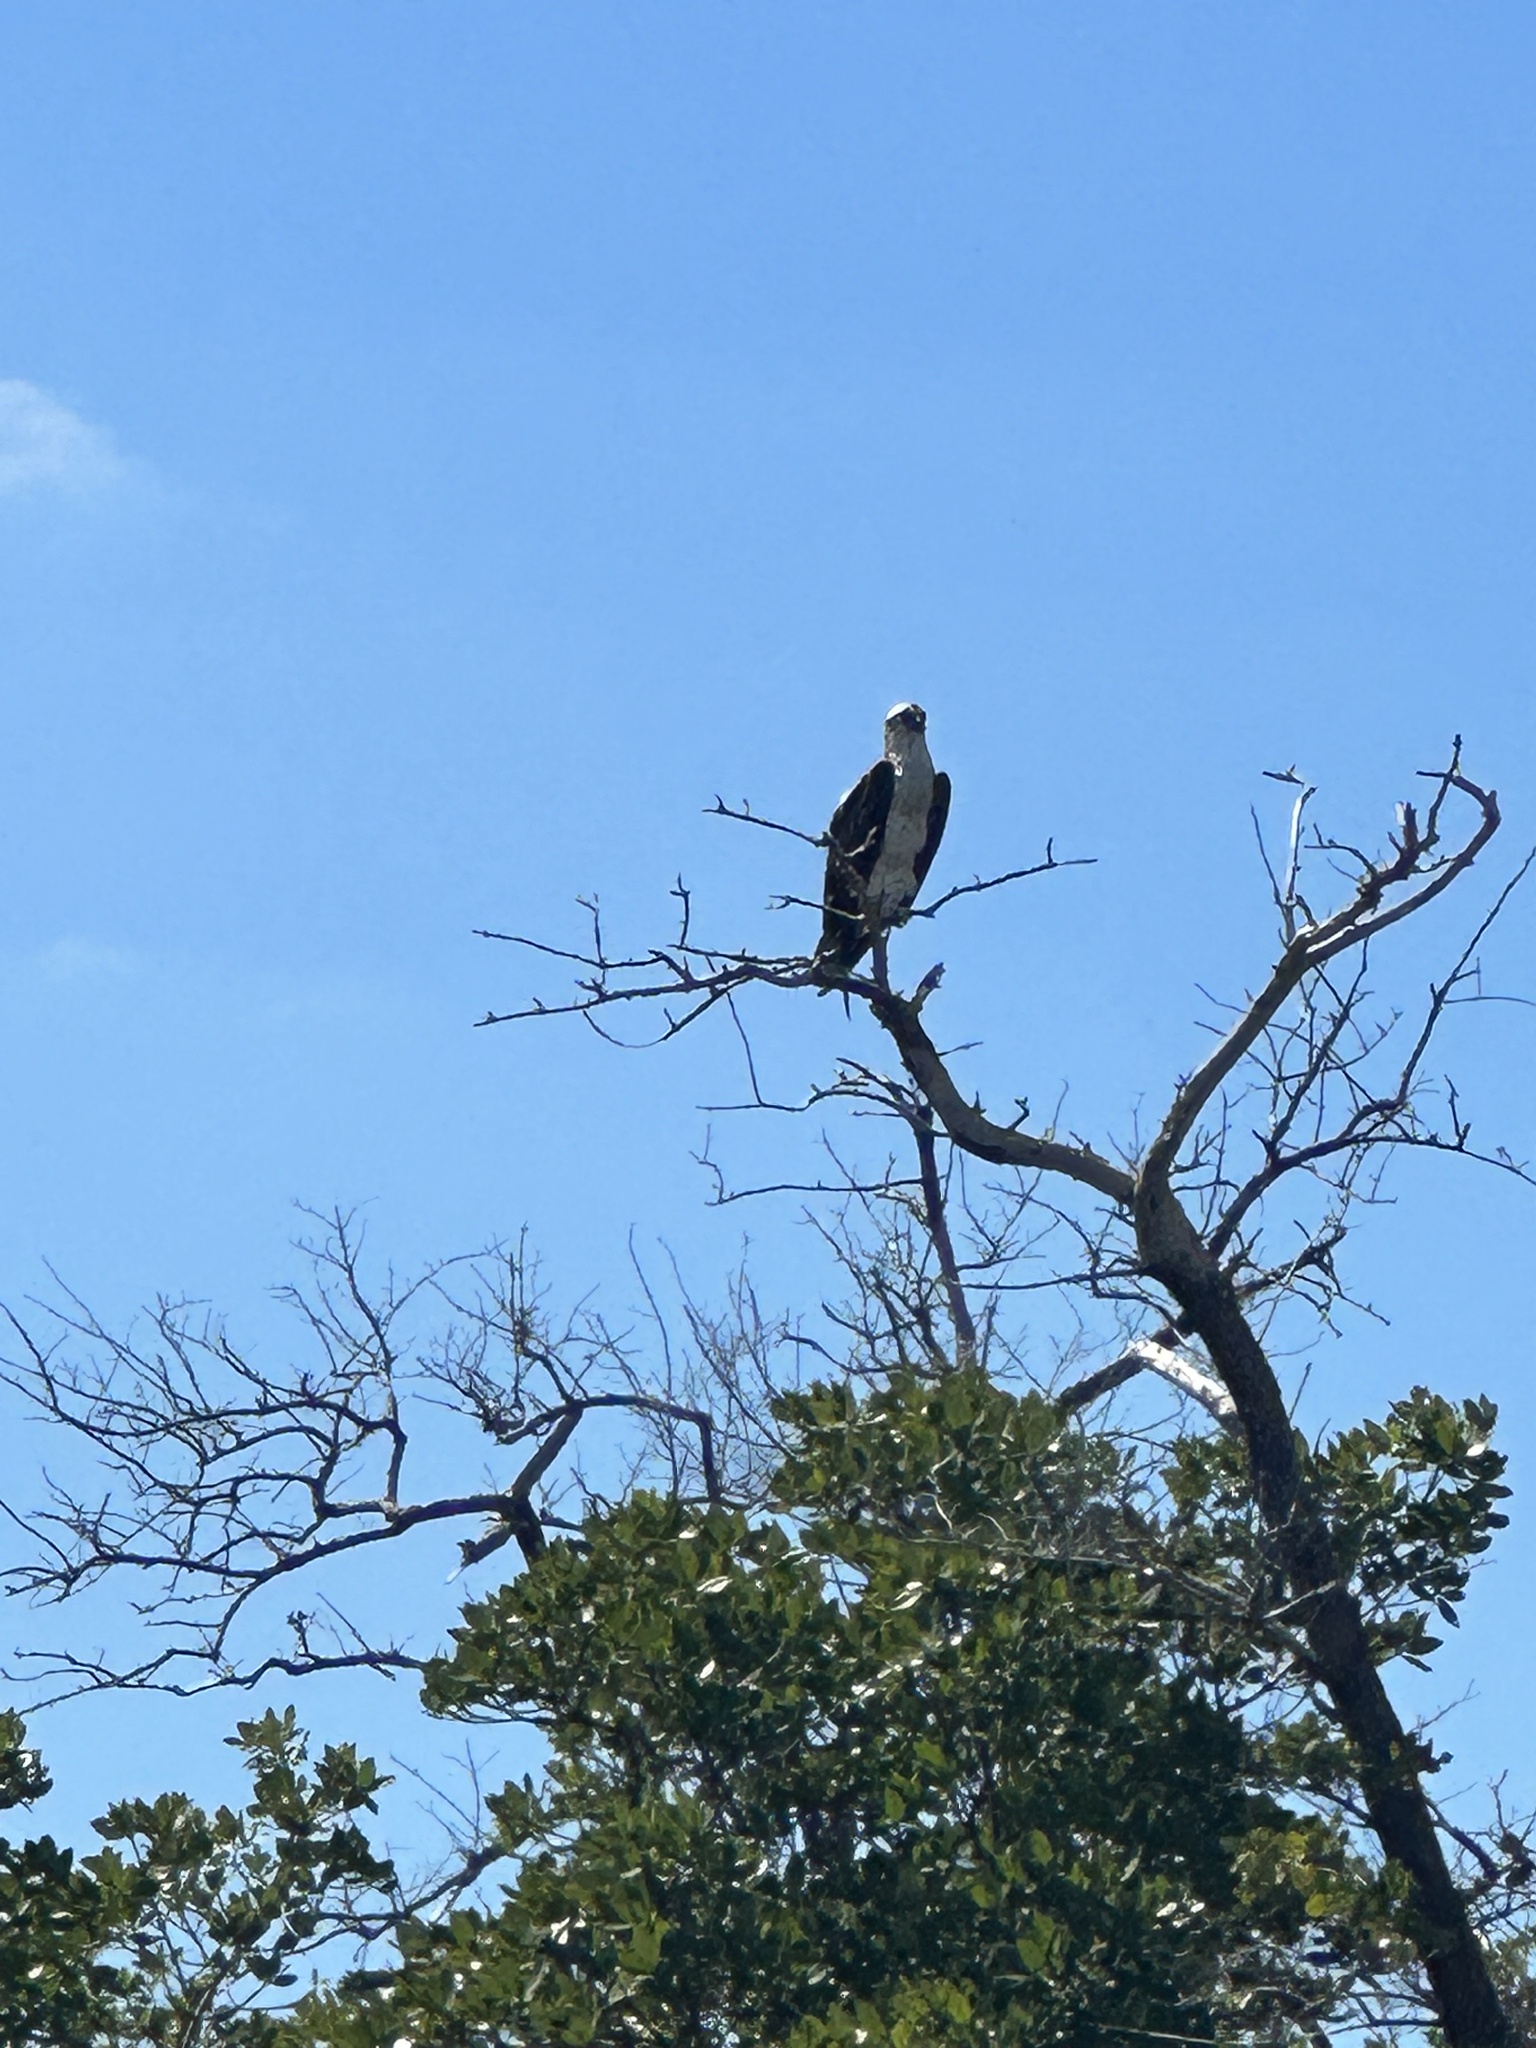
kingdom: Animalia
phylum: Chordata
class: Aves
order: Accipitriformes
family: Pandionidae
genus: Pandion
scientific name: Pandion haliaetus
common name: Osprey
